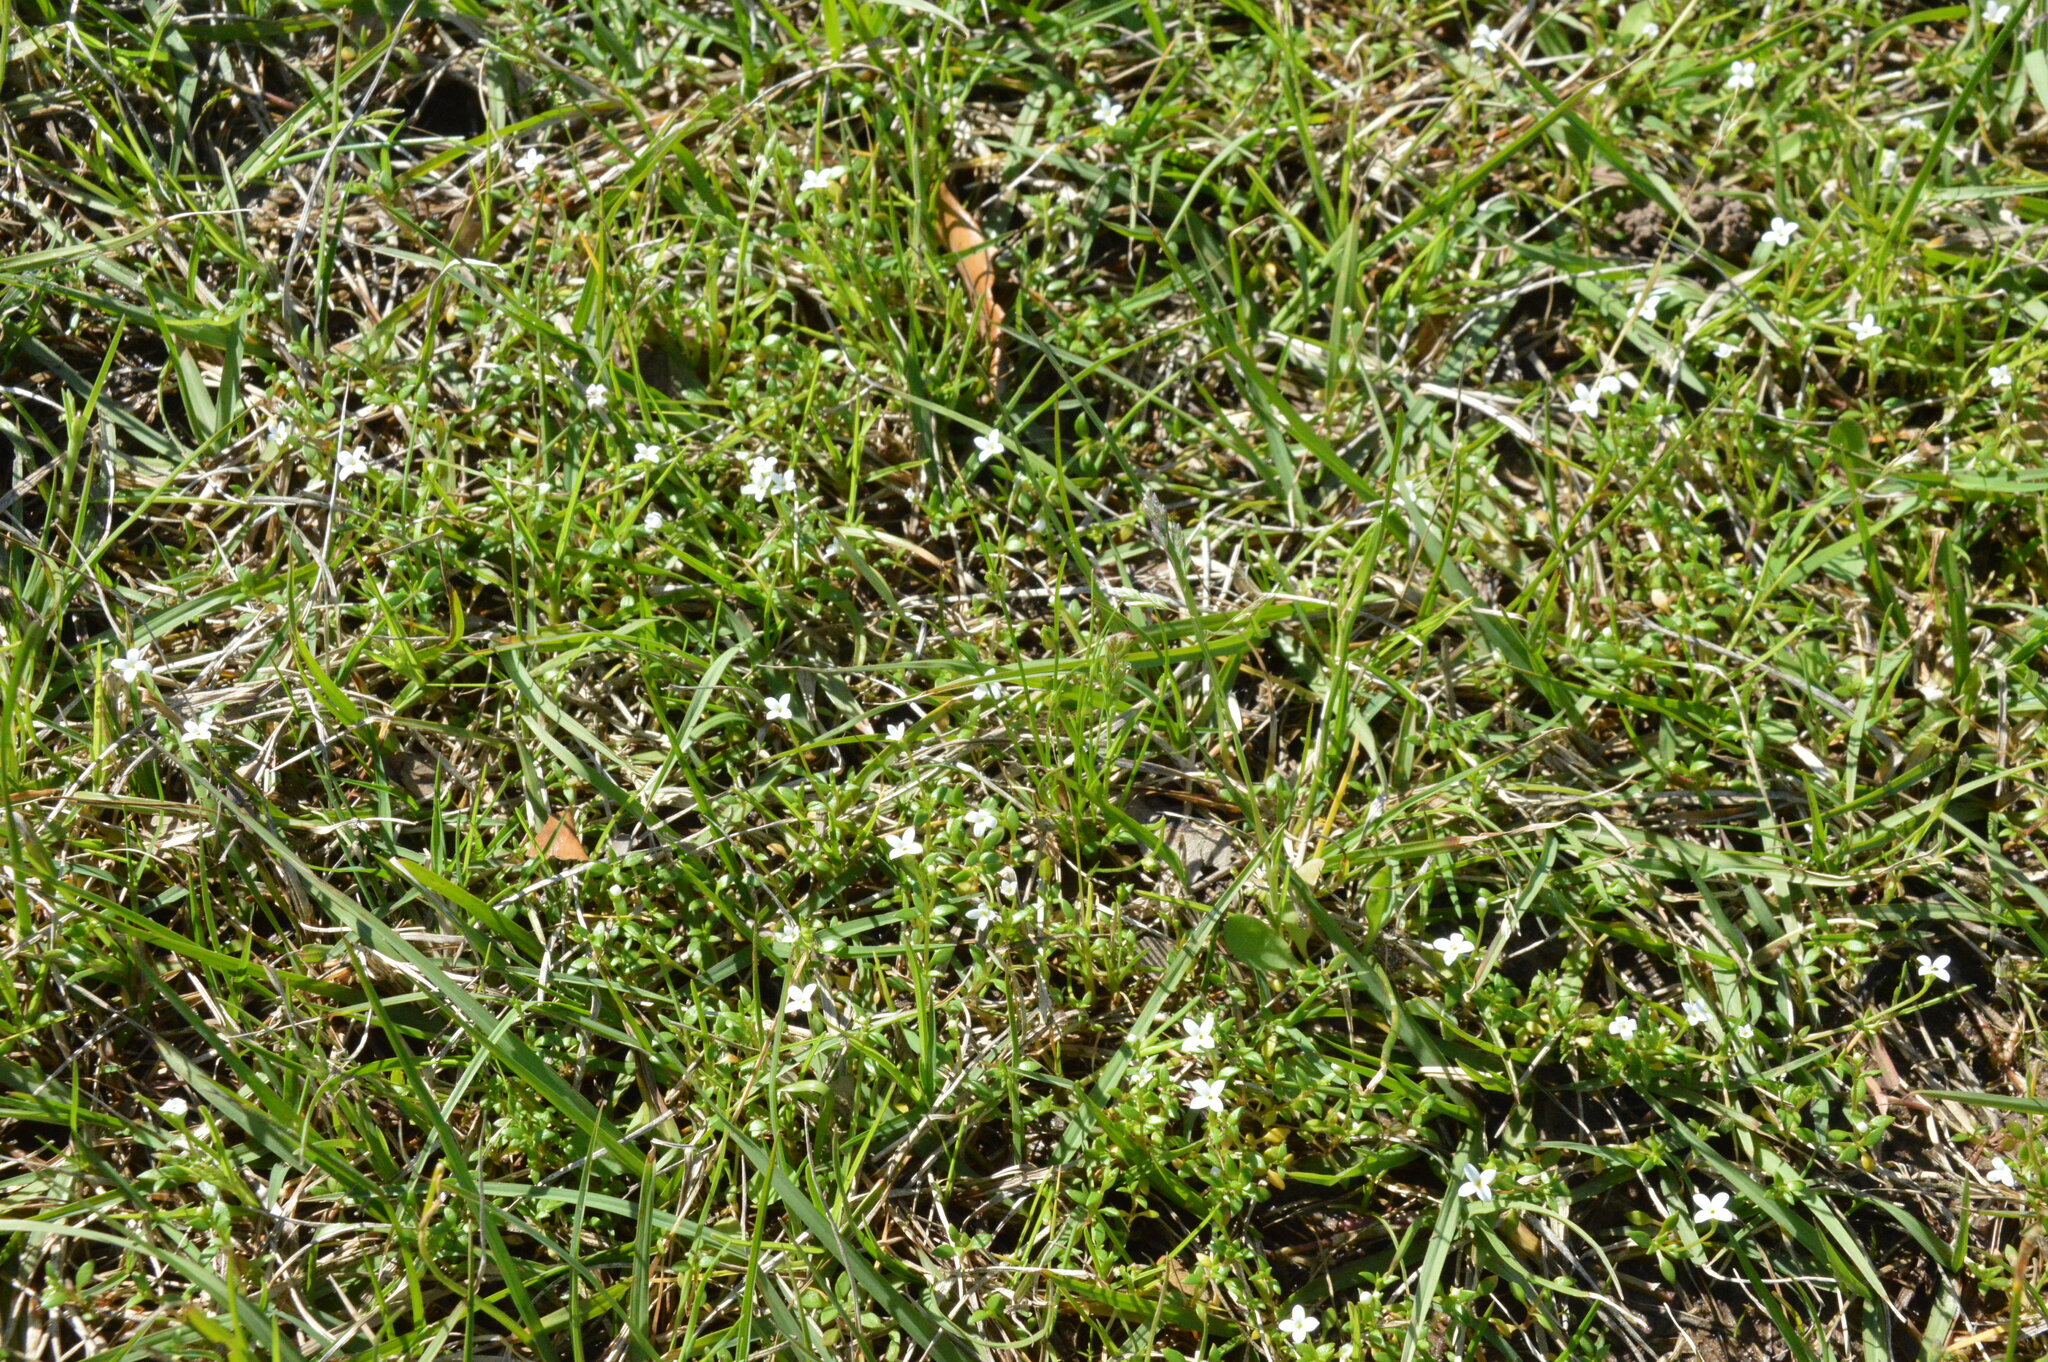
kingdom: Plantae
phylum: Tracheophyta
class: Magnoliopsida
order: Gentianales
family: Rubiaceae
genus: Houstonia
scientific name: Houstonia micrantha
